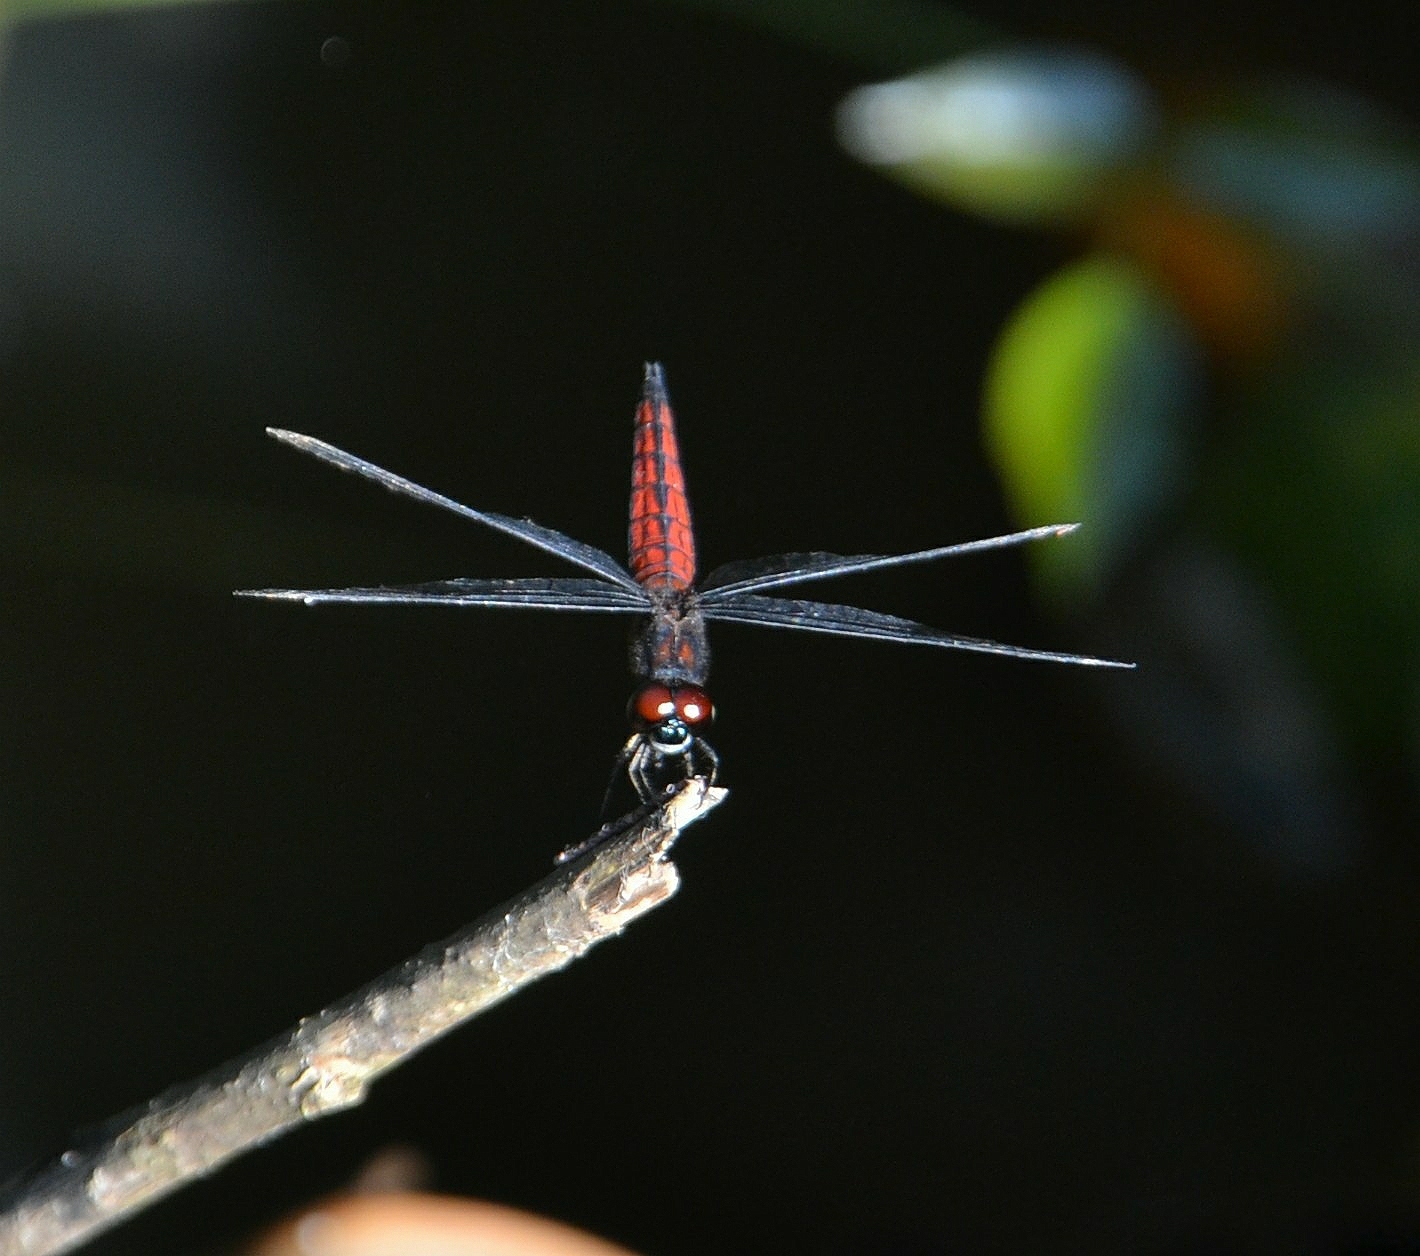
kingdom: Animalia
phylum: Arthropoda
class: Insecta
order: Odonata
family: Libellulidae
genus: Lyriothemis
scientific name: Lyriothemis acigastra
